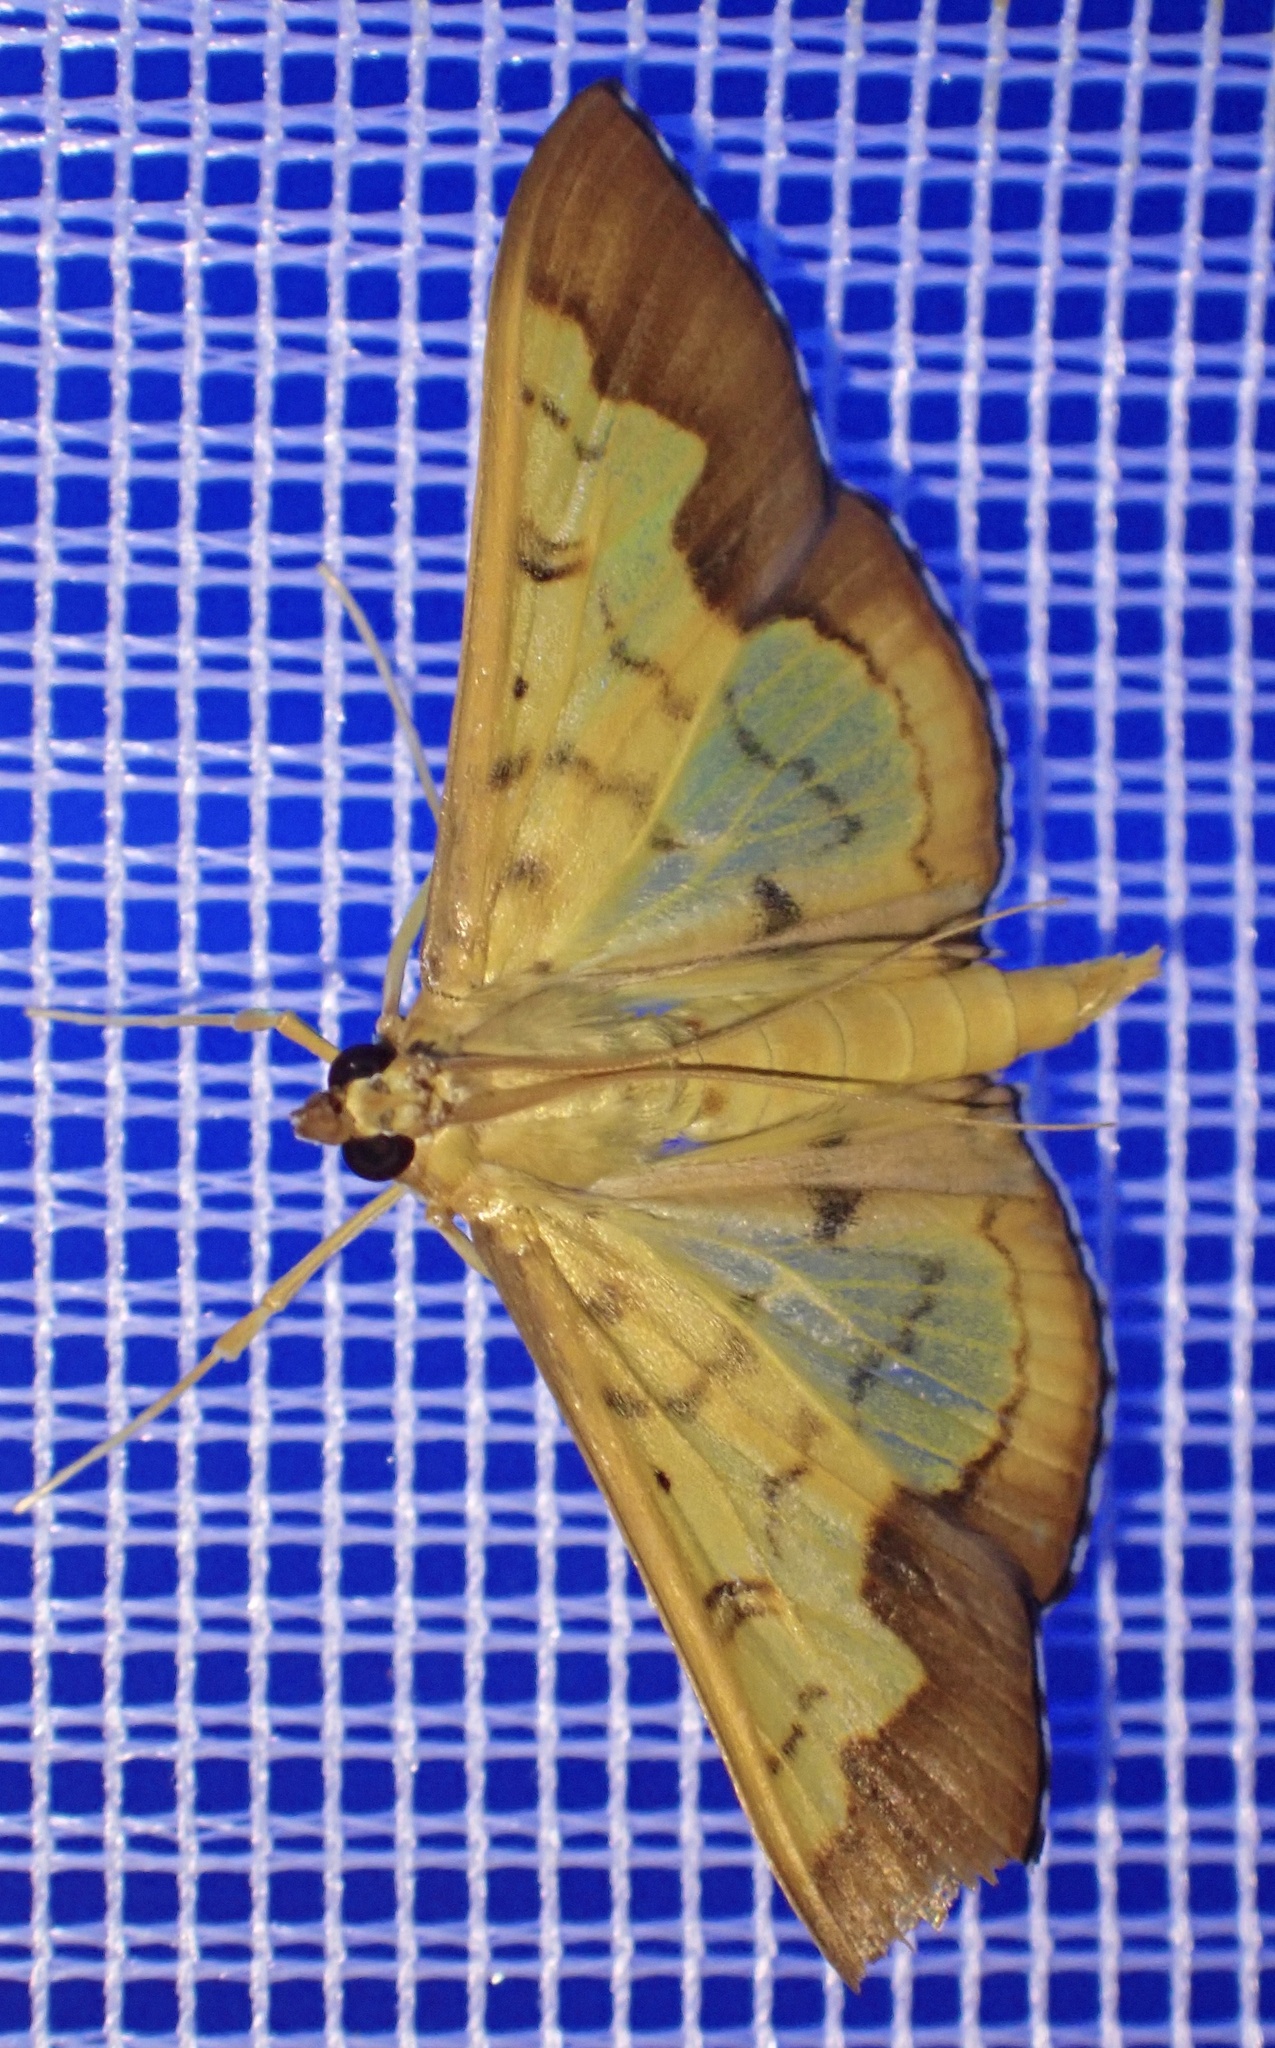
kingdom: Animalia
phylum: Arthropoda
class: Insecta
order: Lepidoptera
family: Crambidae
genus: Meroctena
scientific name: Meroctena staintonii
